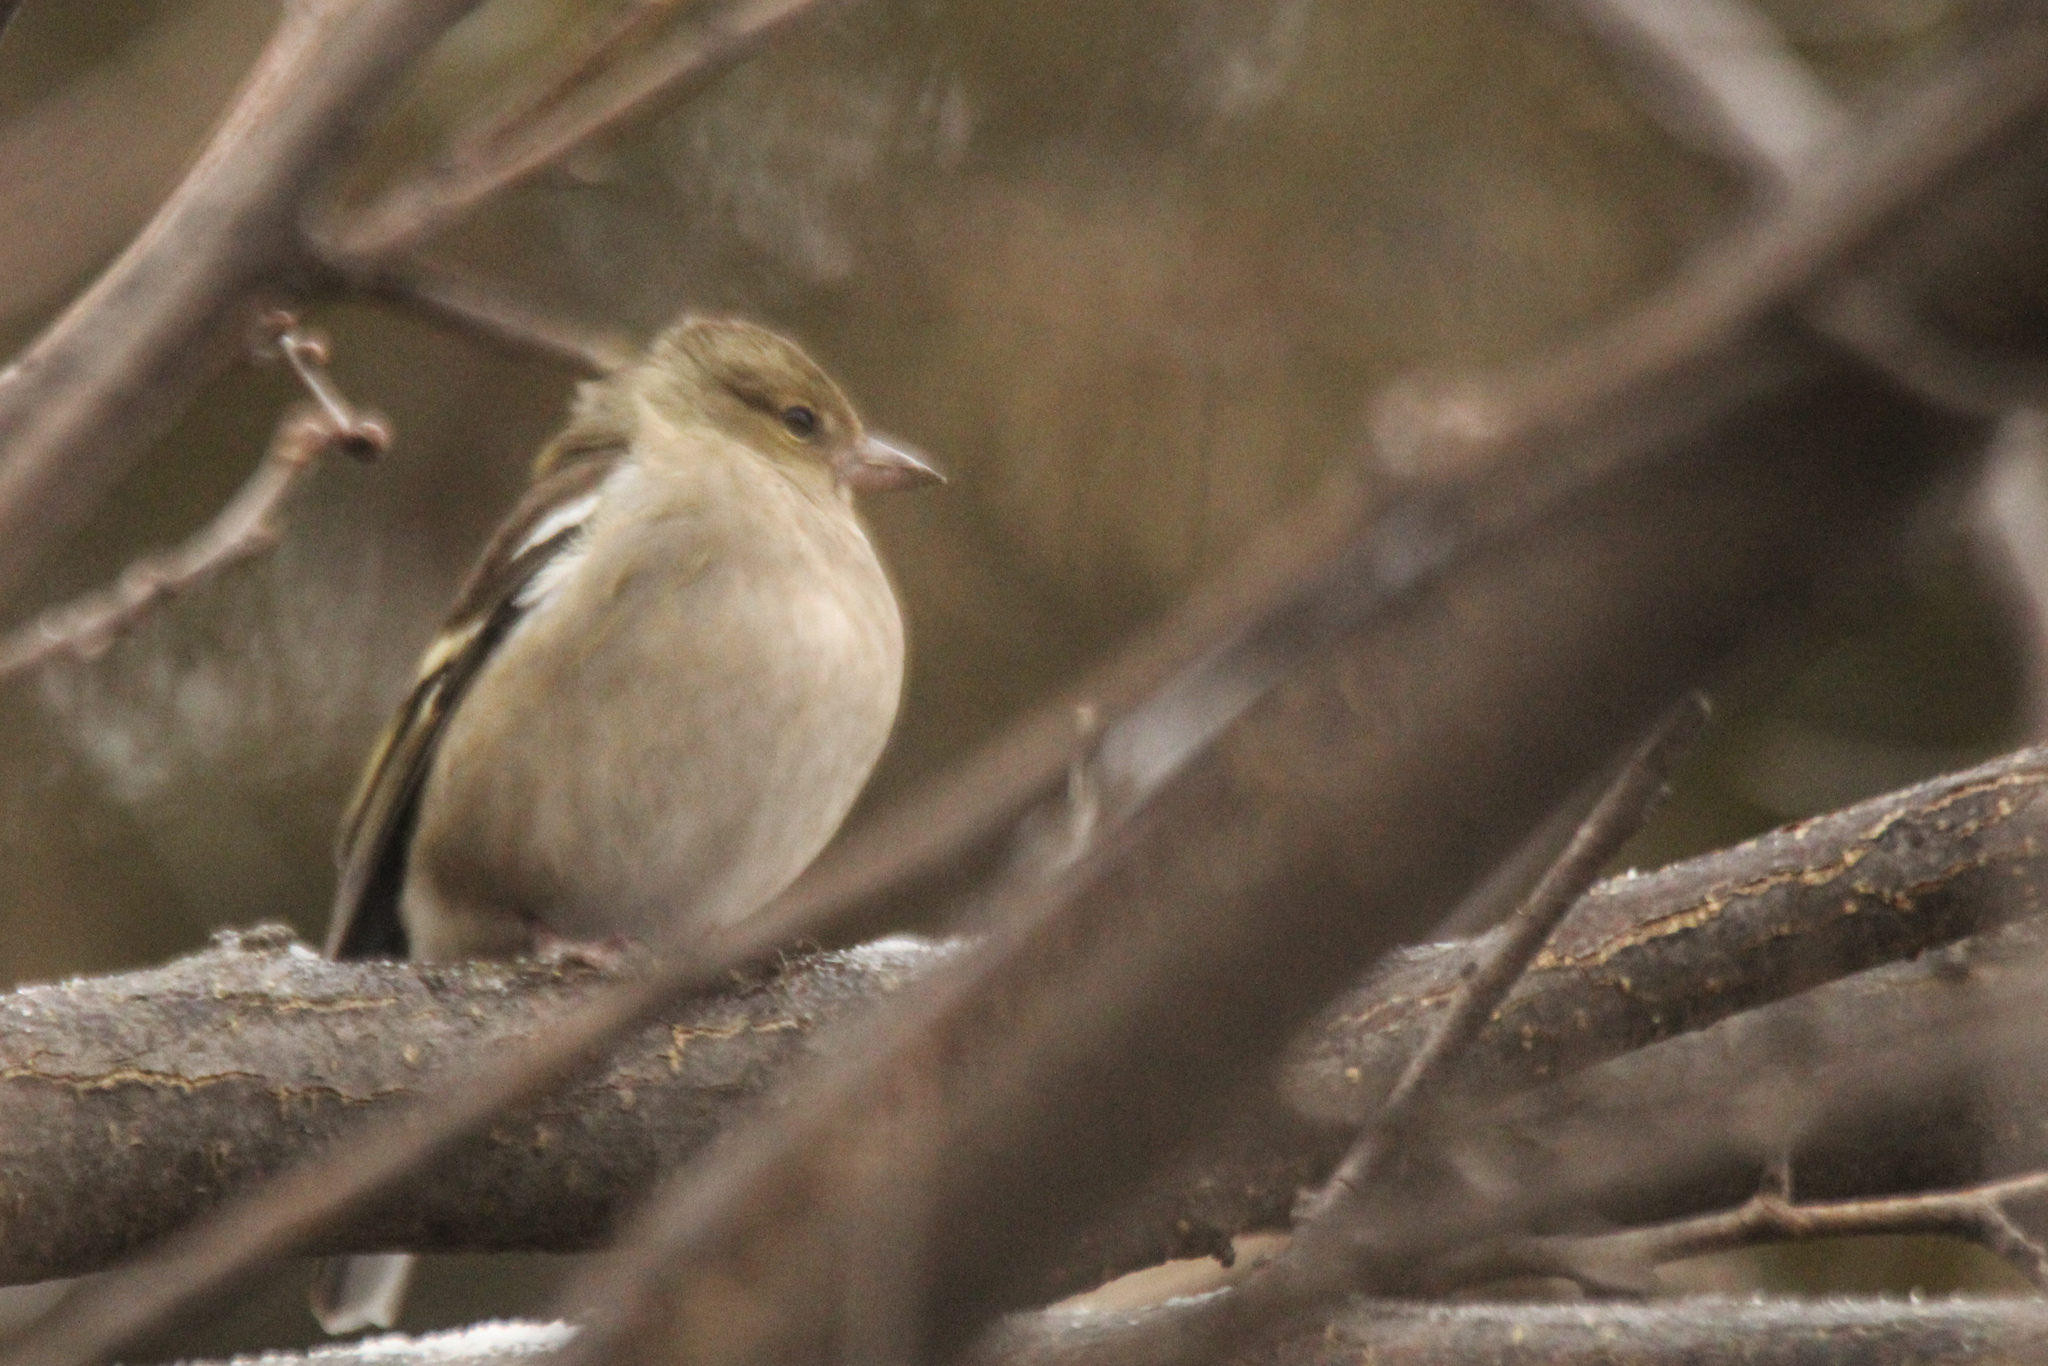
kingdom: Animalia
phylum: Chordata
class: Aves
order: Passeriformes
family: Fringillidae
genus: Fringilla
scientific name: Fringilla coelebs
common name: Common chaffinch
